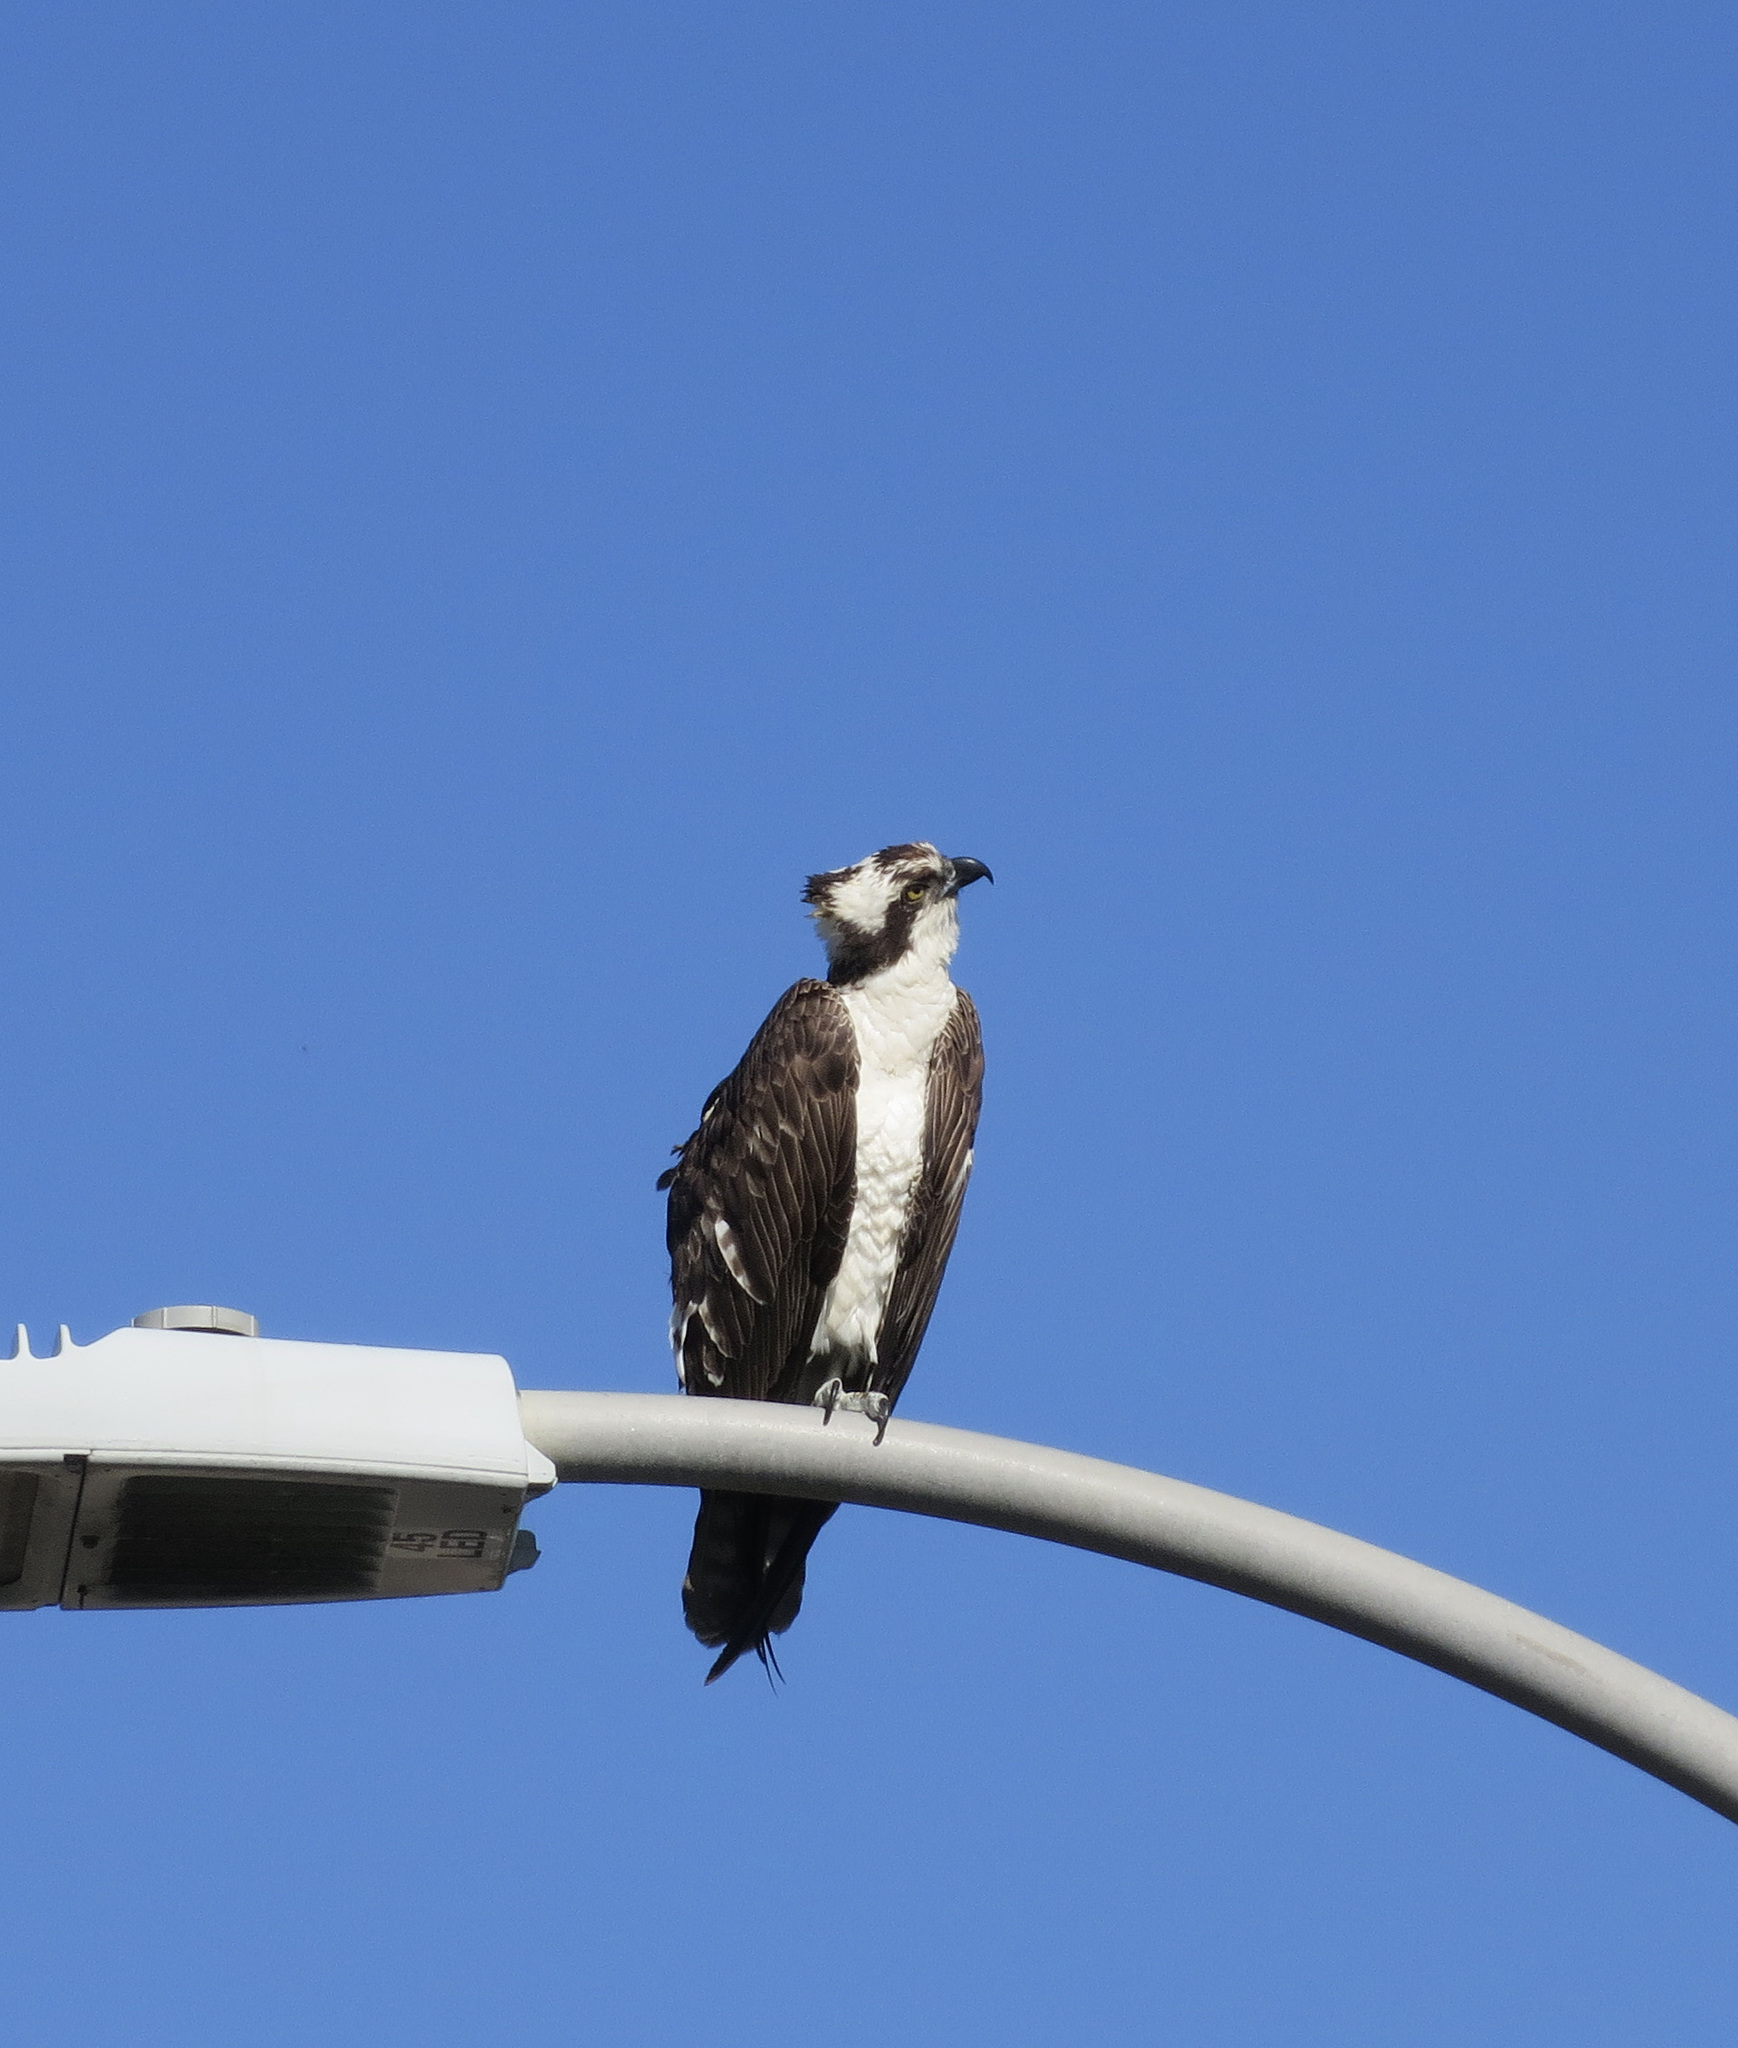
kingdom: Animalia
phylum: Chordata
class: Aves
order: Accipitriformes
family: Pandionidae
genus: Pandion
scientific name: Pandion haliaetus
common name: Osprey
